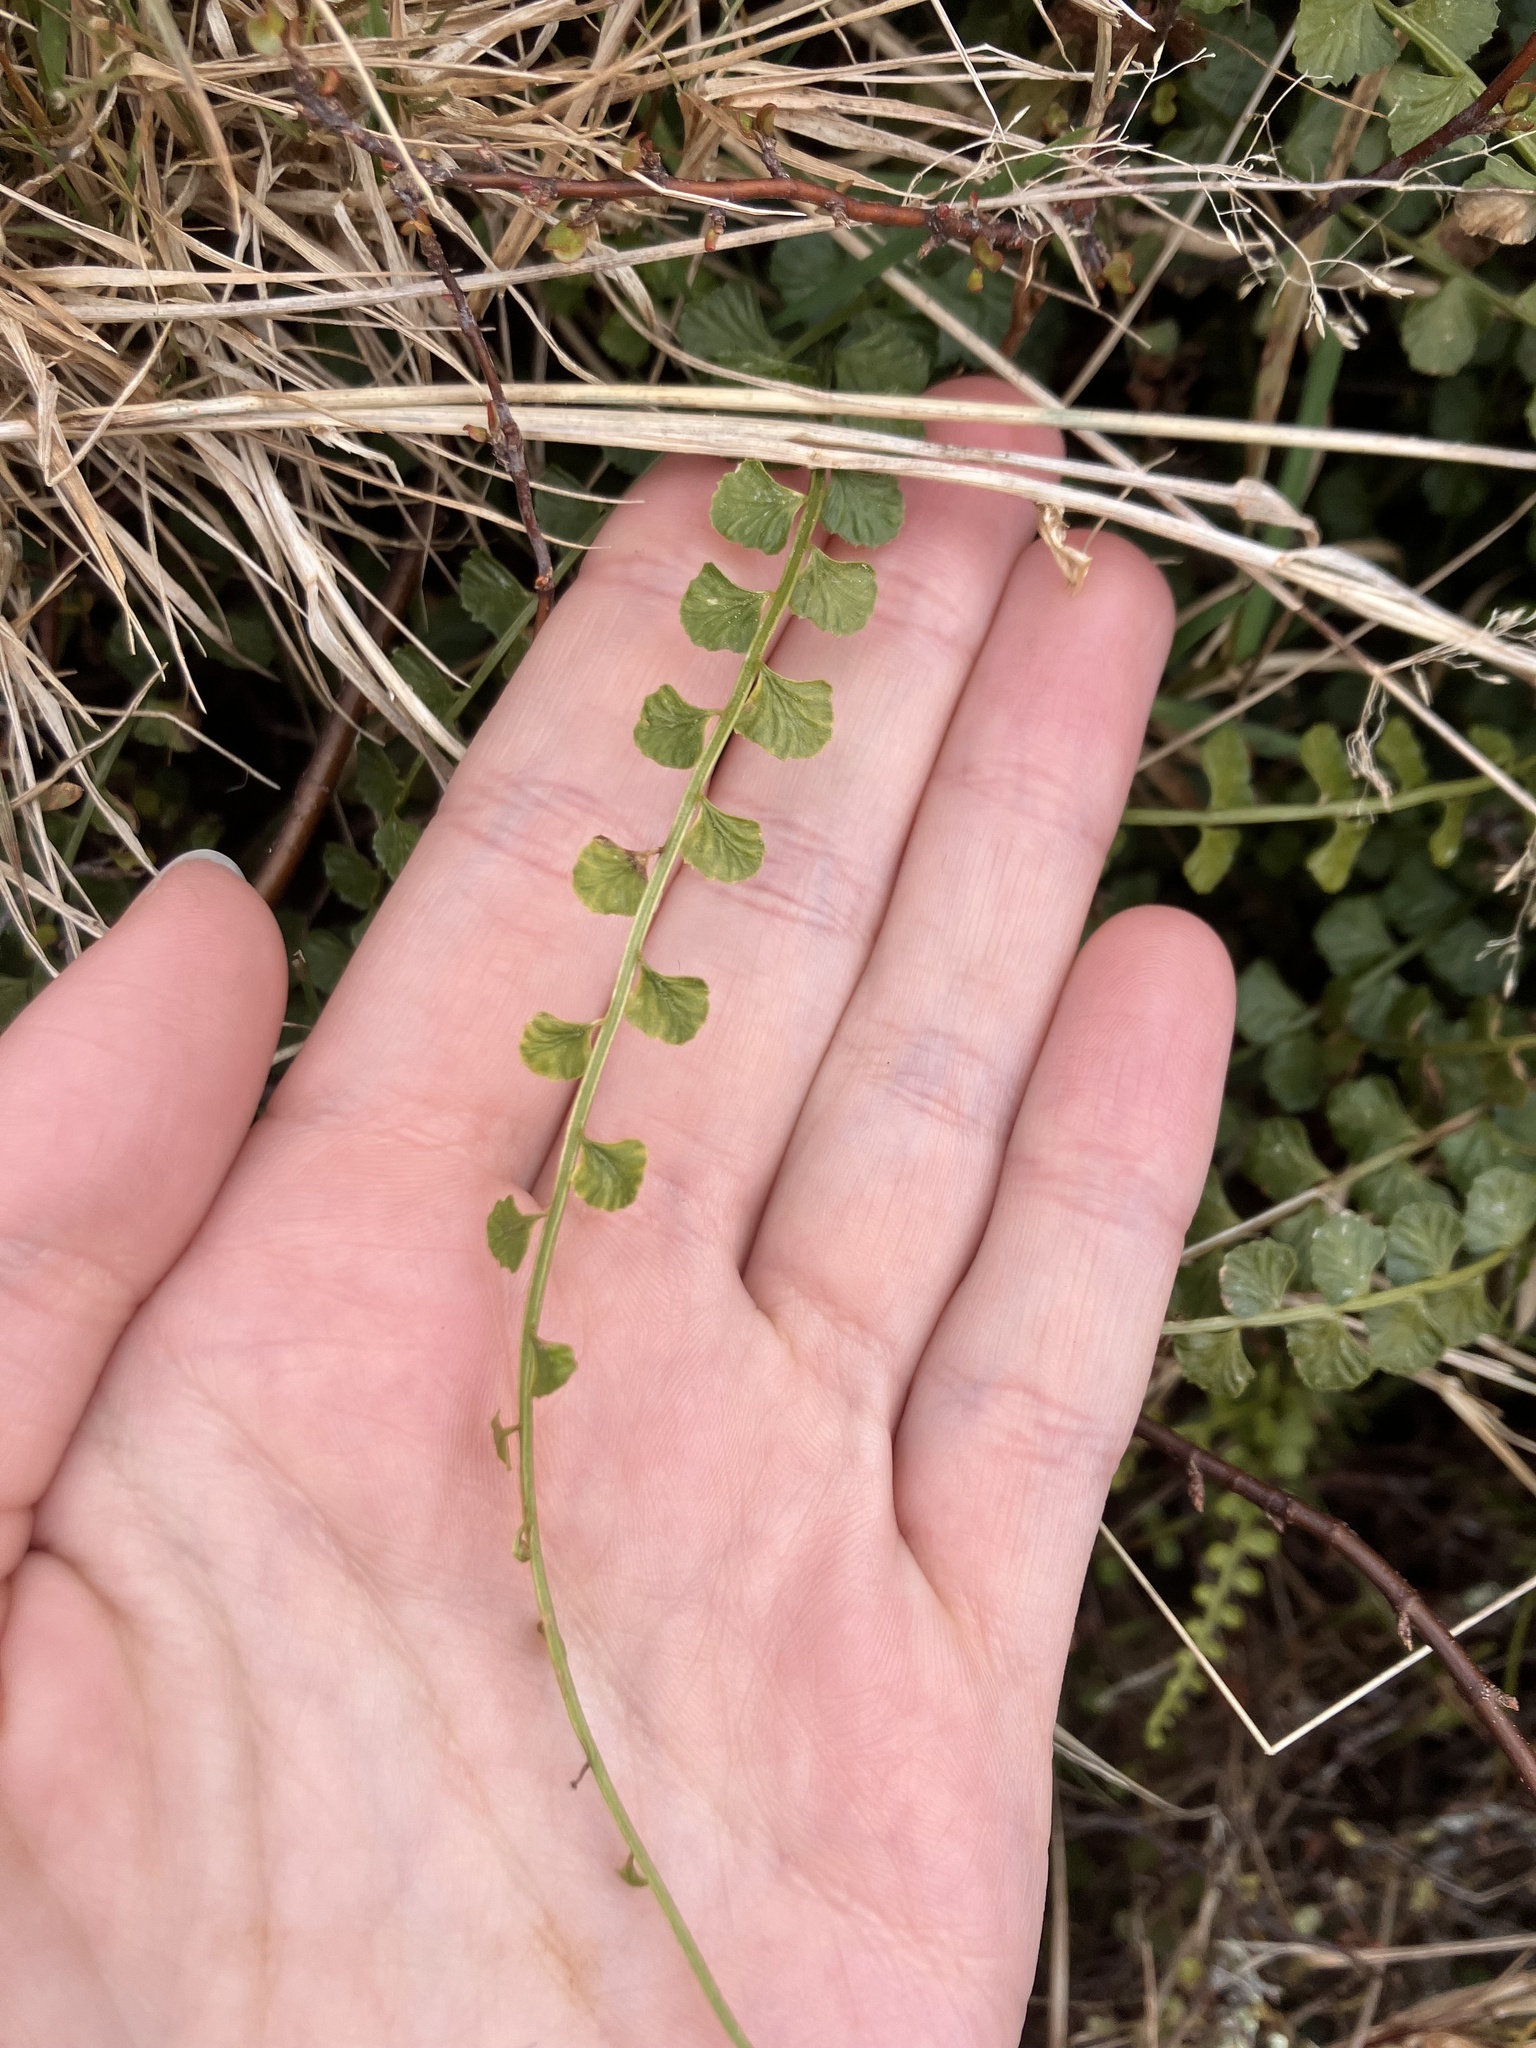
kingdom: Plantae
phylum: Tracheophyta
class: Polypodiopsida
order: Polypodiales
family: Aspleniaceae
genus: Asplenium
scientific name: Asplenium flabellifolium
